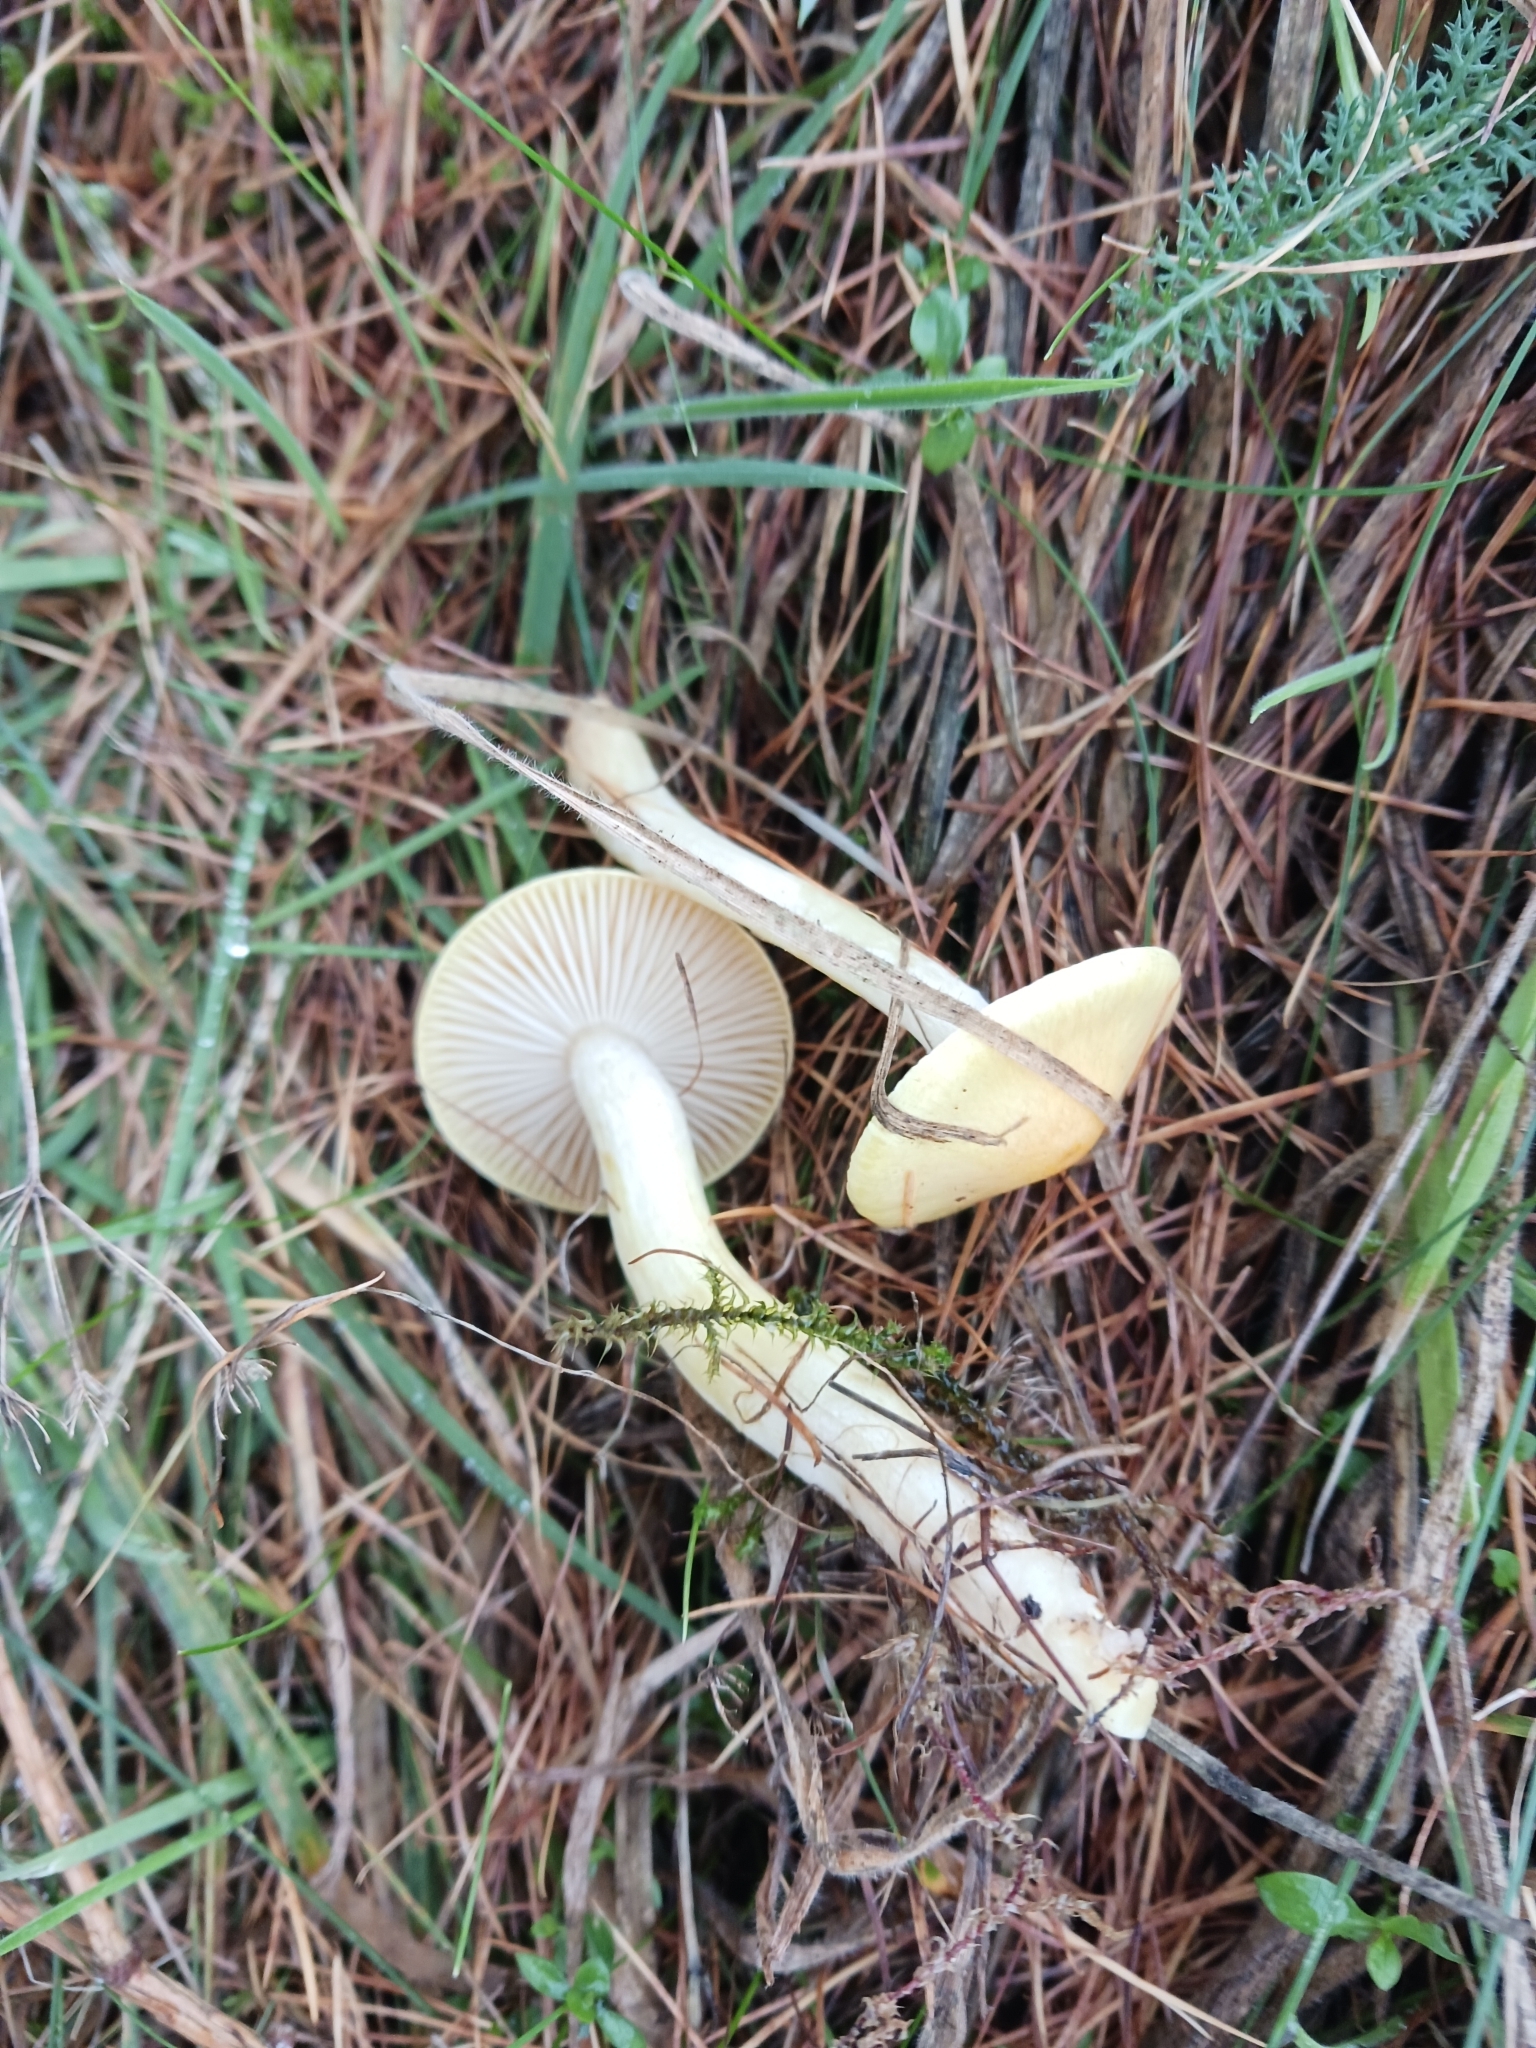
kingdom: Fungi
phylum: Basidiomycota
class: Agaricomycetes
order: Agaricales
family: Hygrophoraceae
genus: Hygrophorus
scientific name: Hygrophorus lucorum
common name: Larch woodwax
